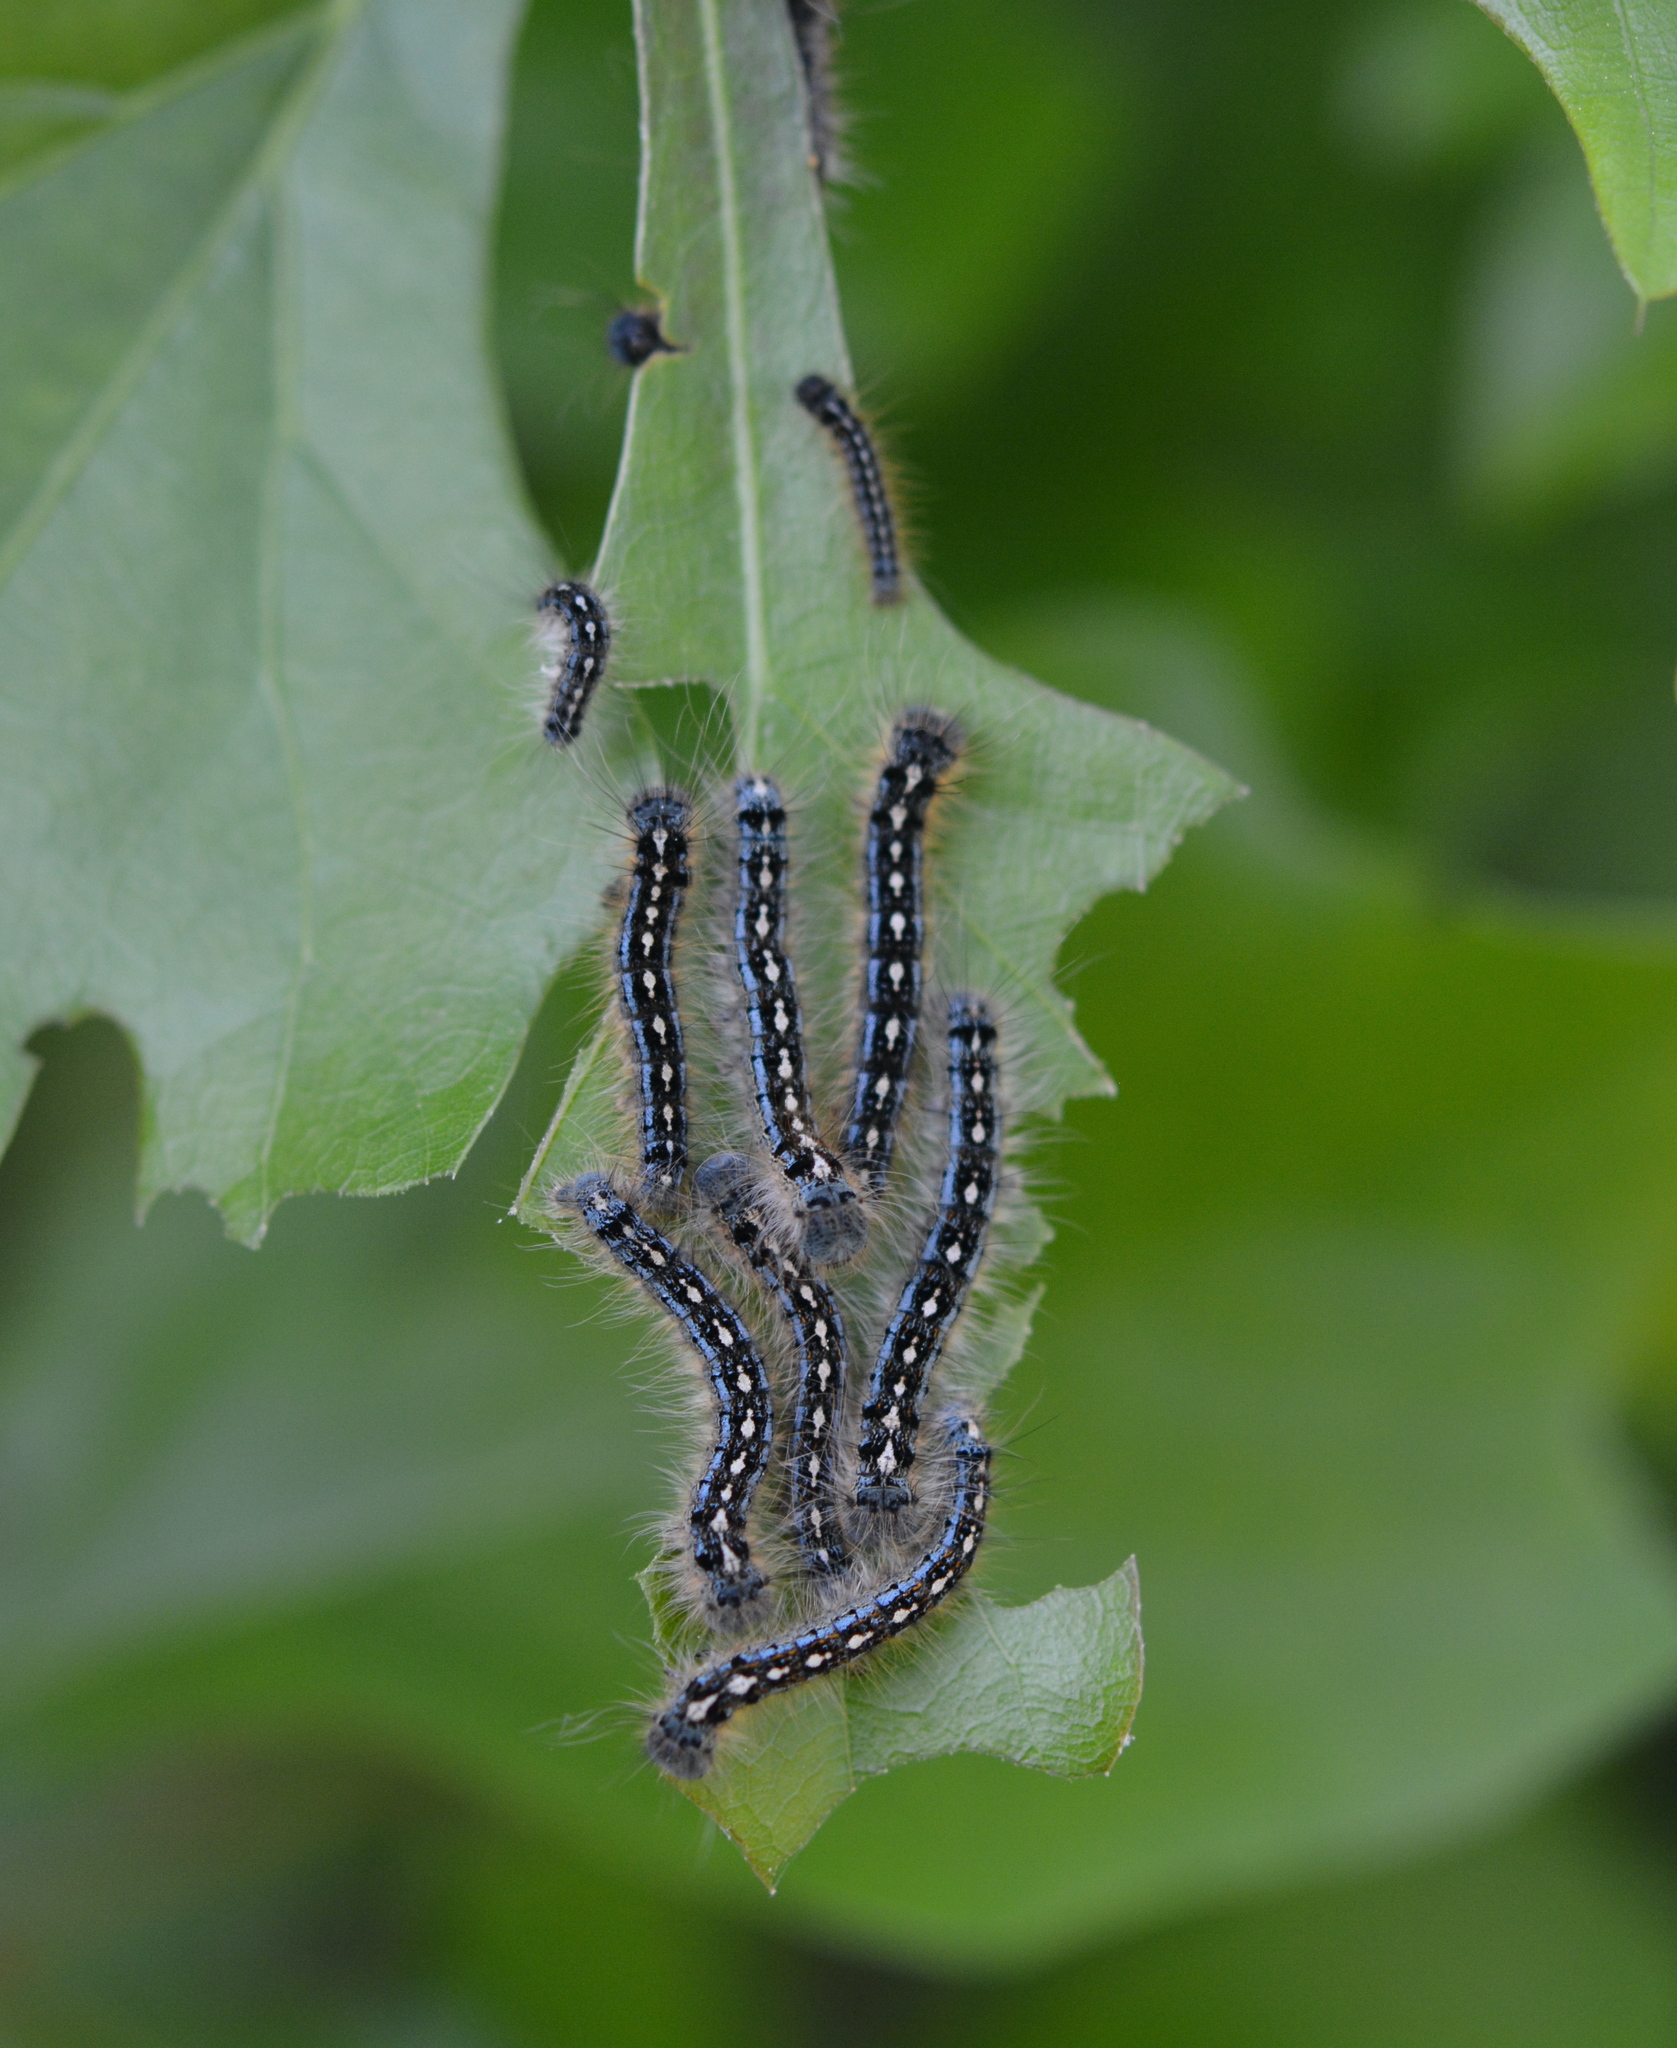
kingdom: Animalia
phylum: Arthropoda
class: Insecta
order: Lepidoptera
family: Lasiocampidae
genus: Malacosoma
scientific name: Malacosoma disstria
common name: Forest tent caterpillar
